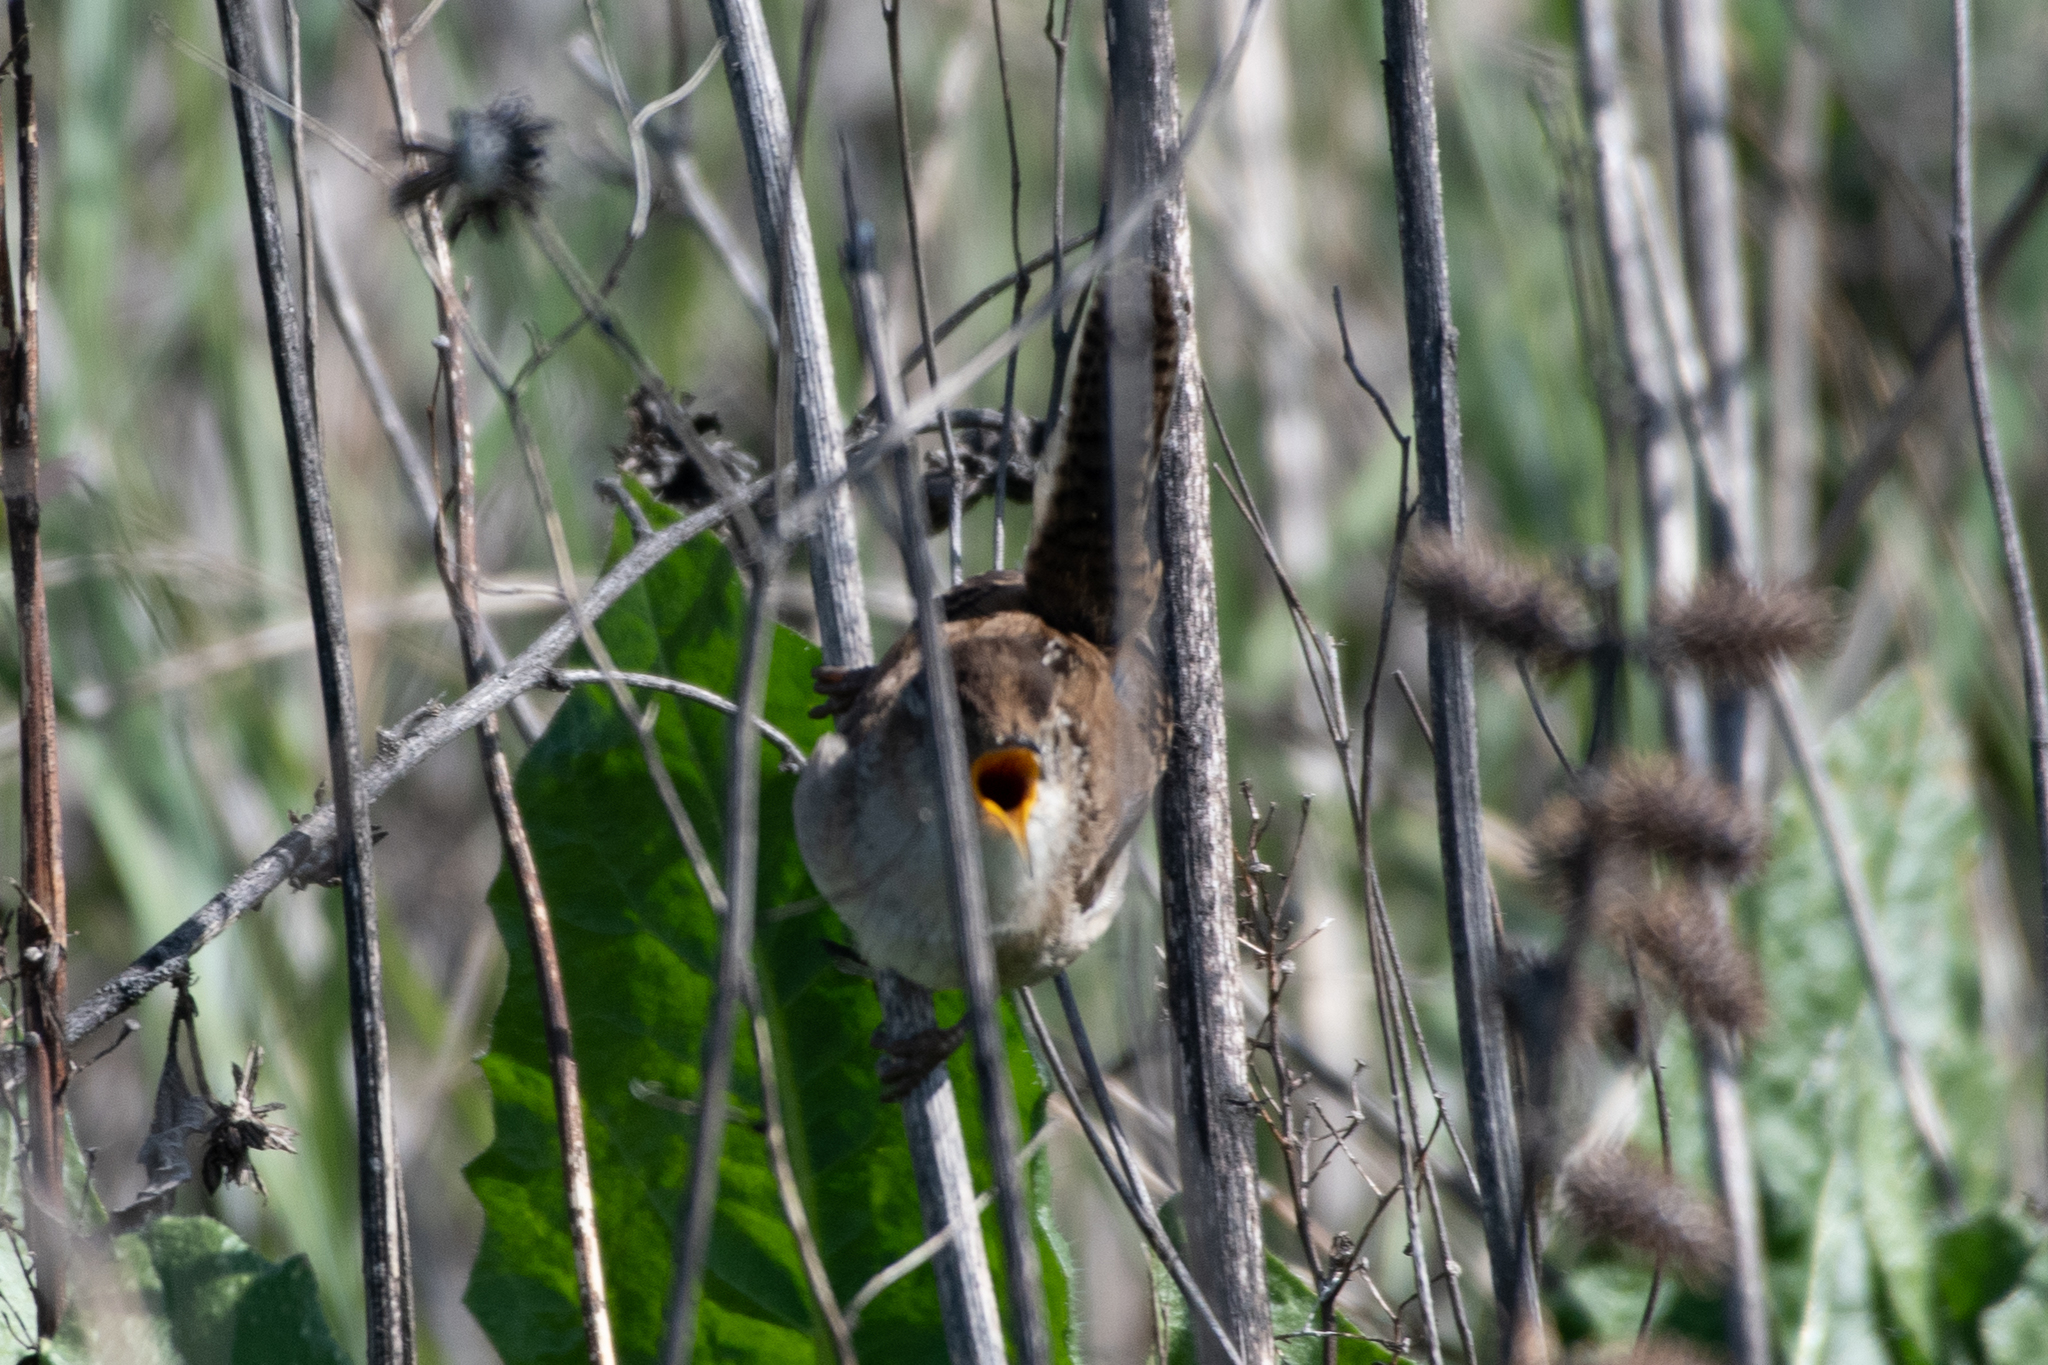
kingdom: Animalia
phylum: Chordata
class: Aves
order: Passeriformes
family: Troglodytidae
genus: Cistothorus
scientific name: Cistothorus palustris
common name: Marsh wren
